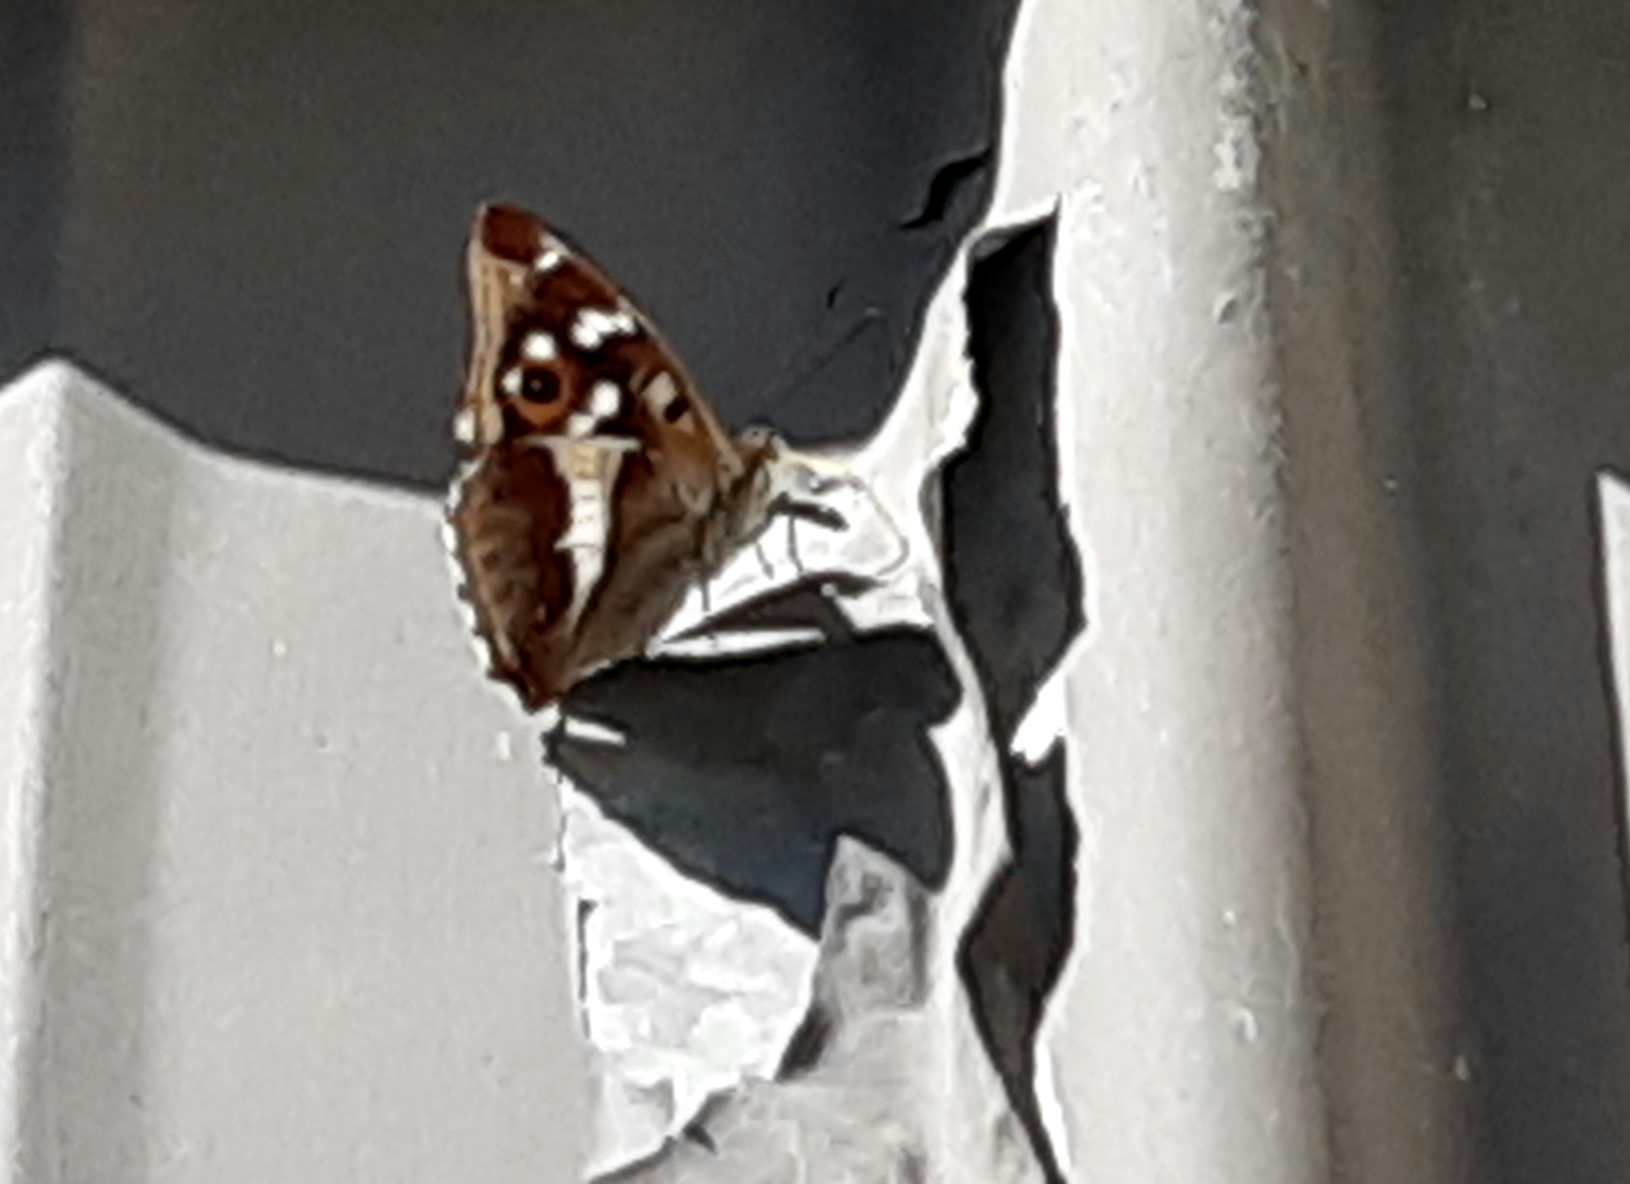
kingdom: Animalia
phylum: Arthropoda
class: Insecta
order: Lepidoptera
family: Nymphalidae
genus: Apatura
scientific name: Apatura iris
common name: Purple emperor
